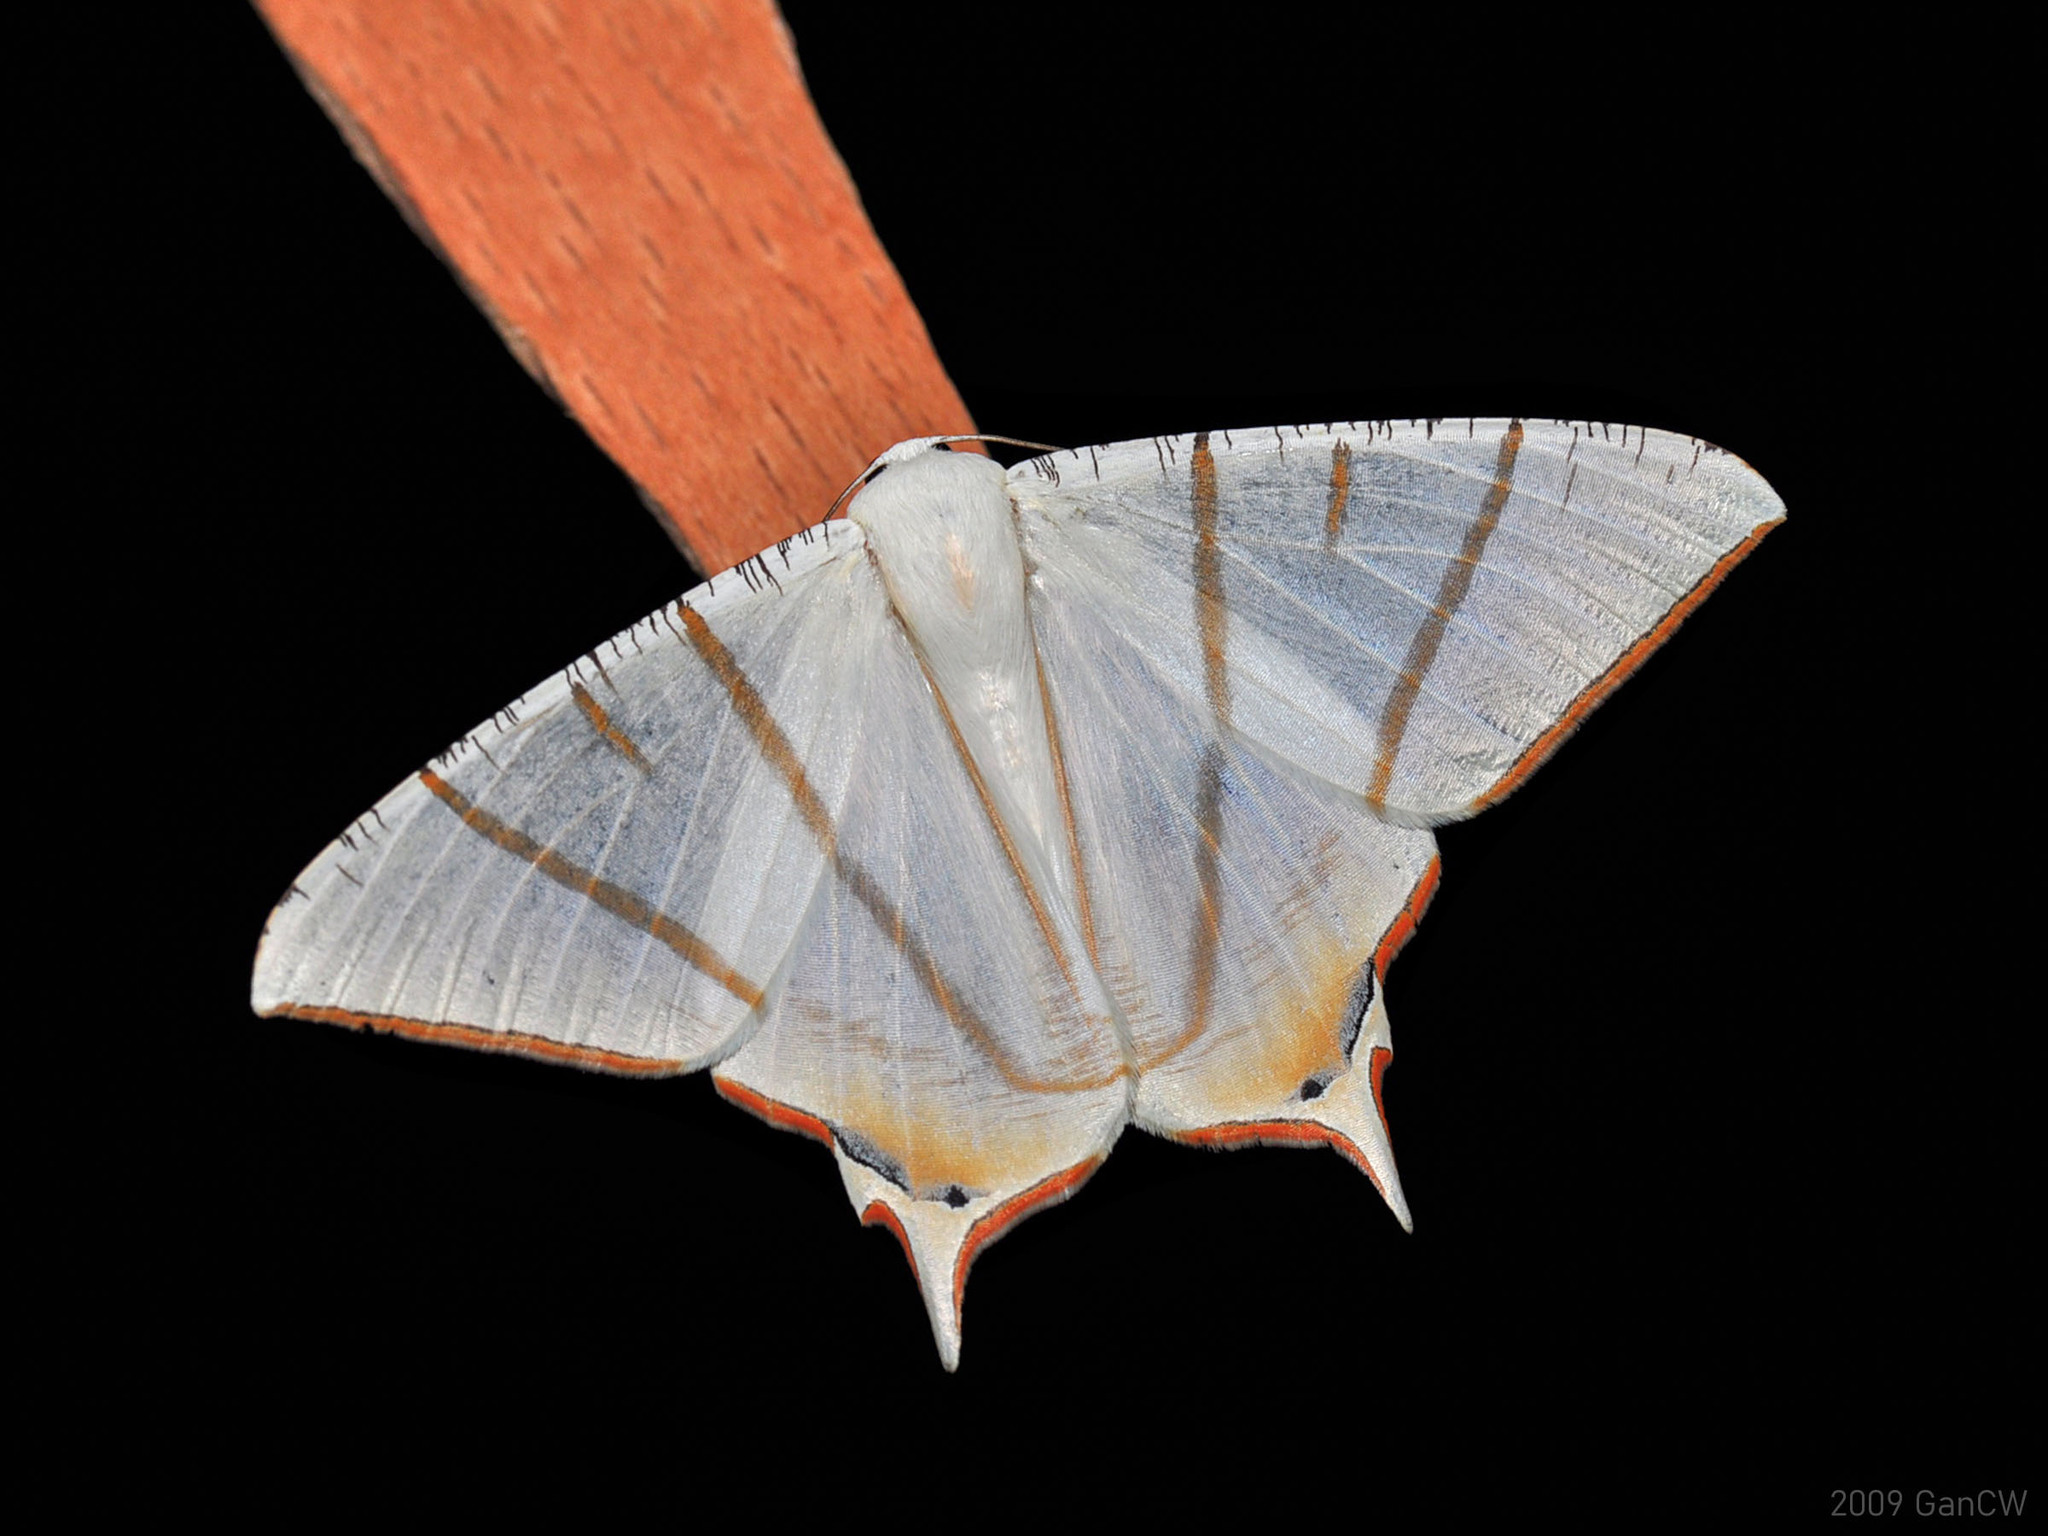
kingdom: Animalia
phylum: Arthropoda
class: Insecta
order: Lepidoptera
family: Geometridae
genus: Ourapteryx
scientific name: Ourapteryx claretta
